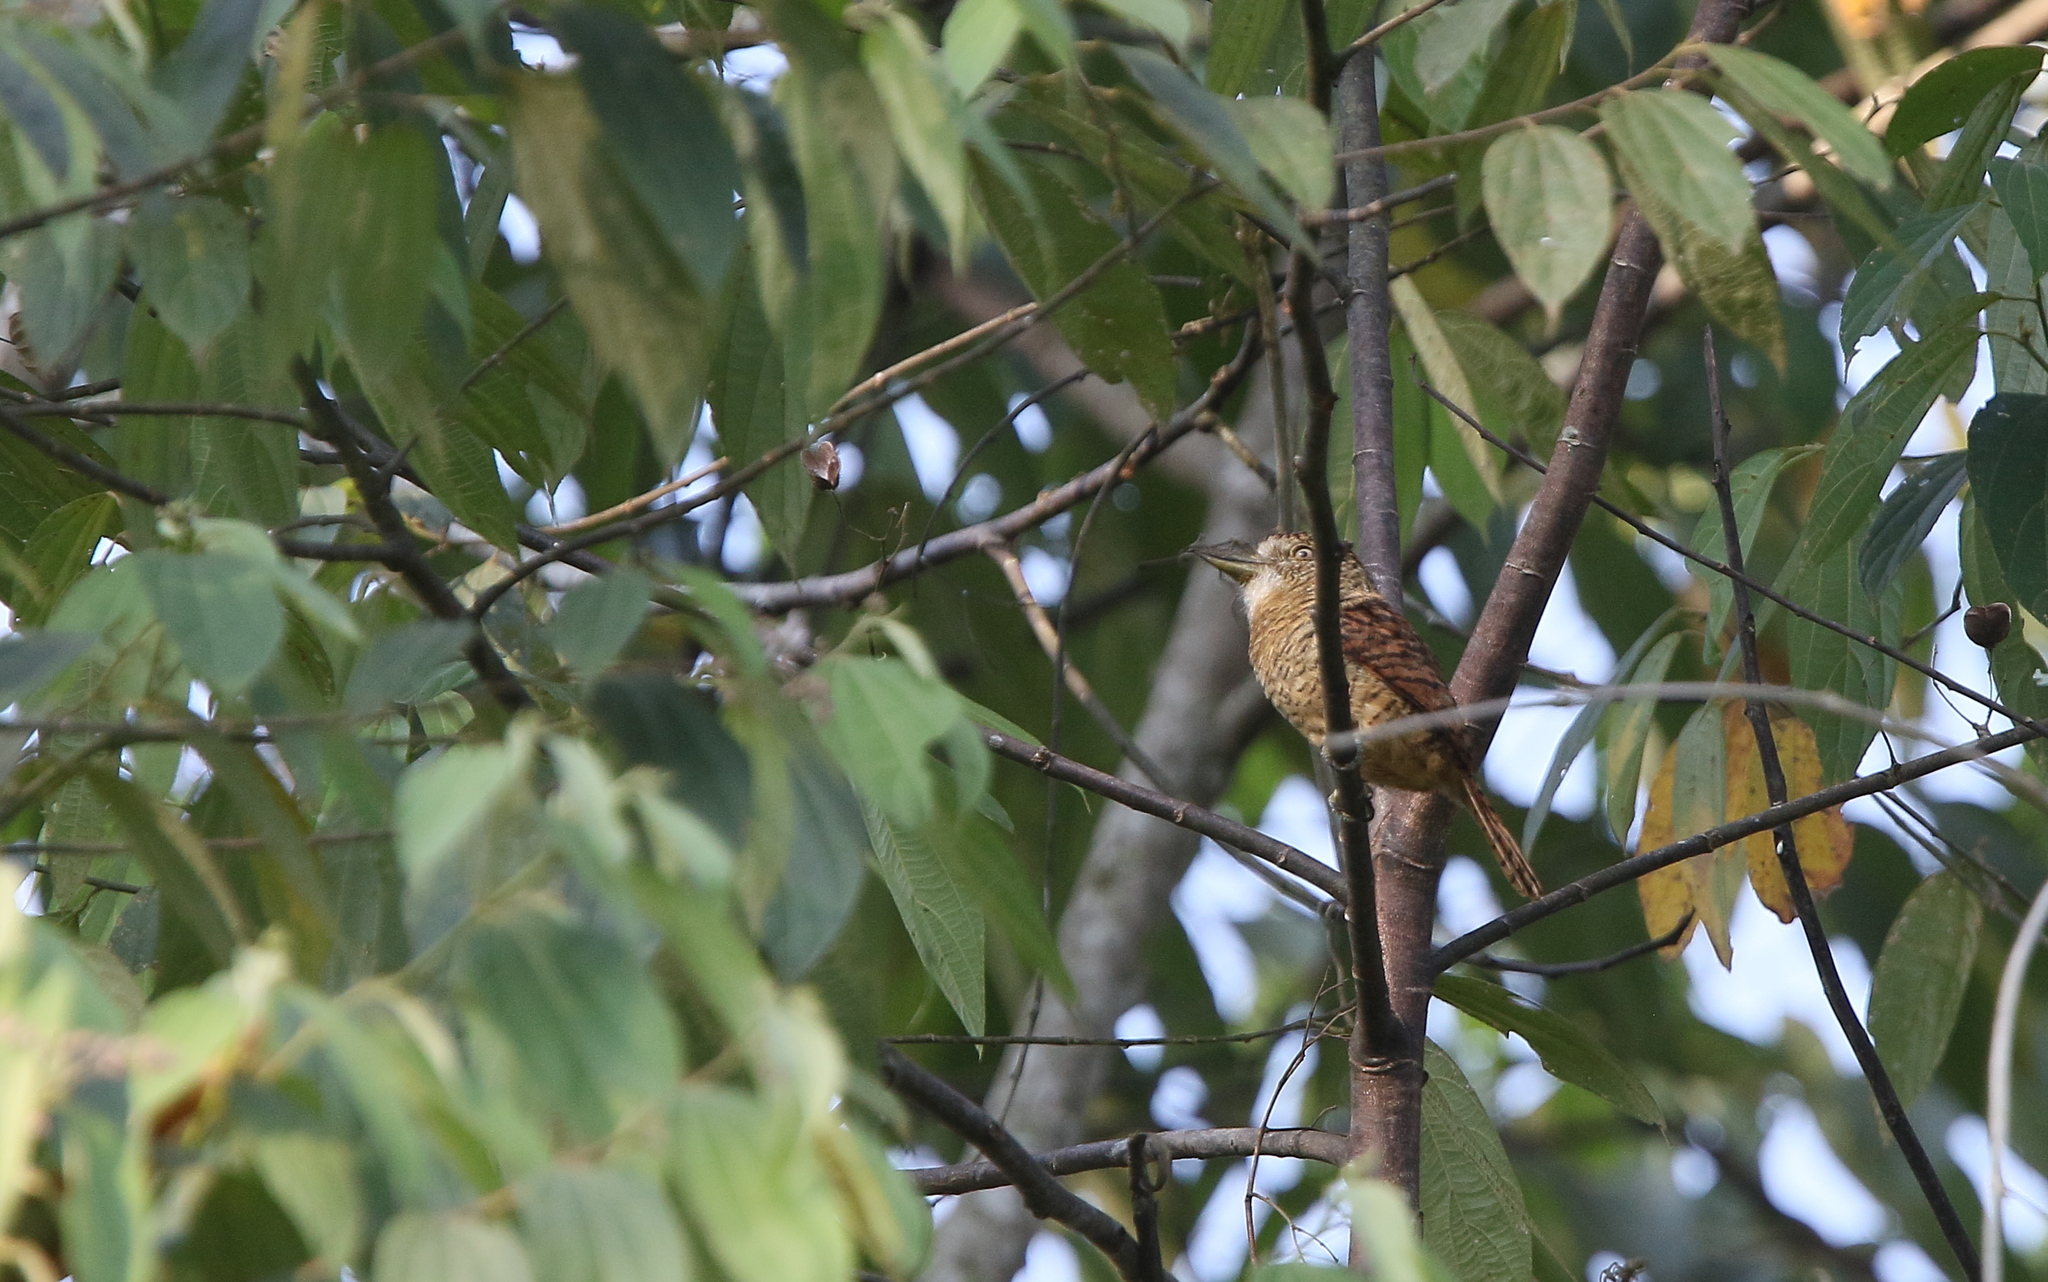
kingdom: Animalia
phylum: Chordata
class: Aves
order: Piciformes
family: Bucconidae
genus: Nystalus
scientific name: Nystalus radiatus
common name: Barred puffbird
